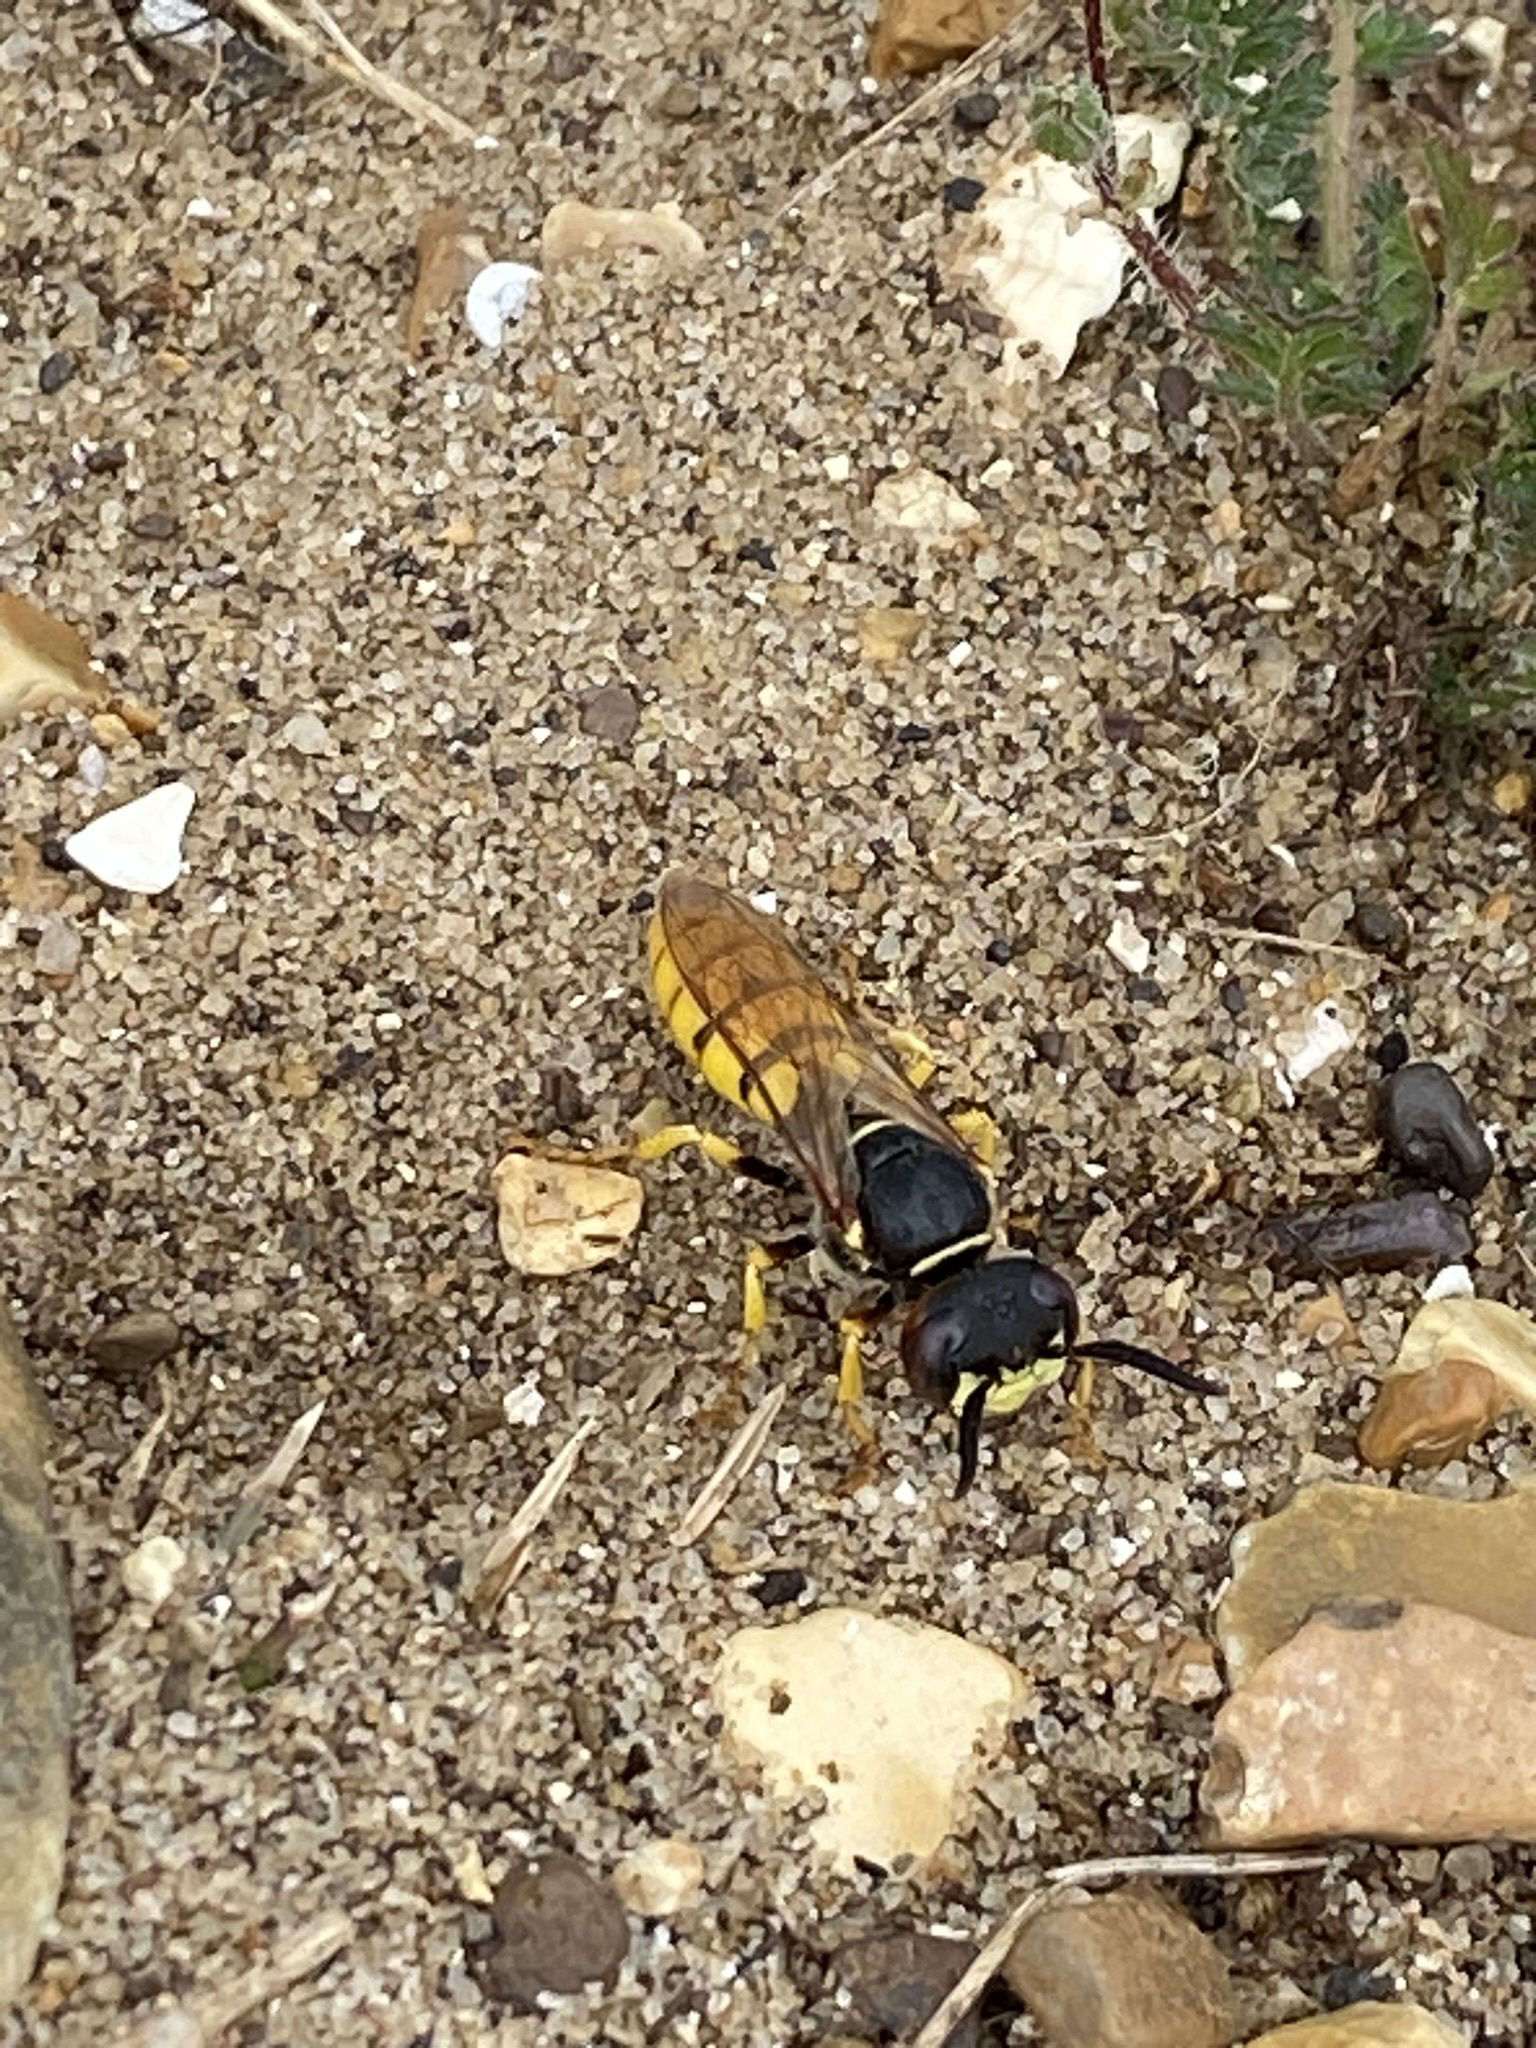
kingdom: Animalia
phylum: Arthropoda
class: Insecta
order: Hymenoptera
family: Crabronidae
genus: Philanthus
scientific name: Philanthus triangulum
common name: Bee wolf
